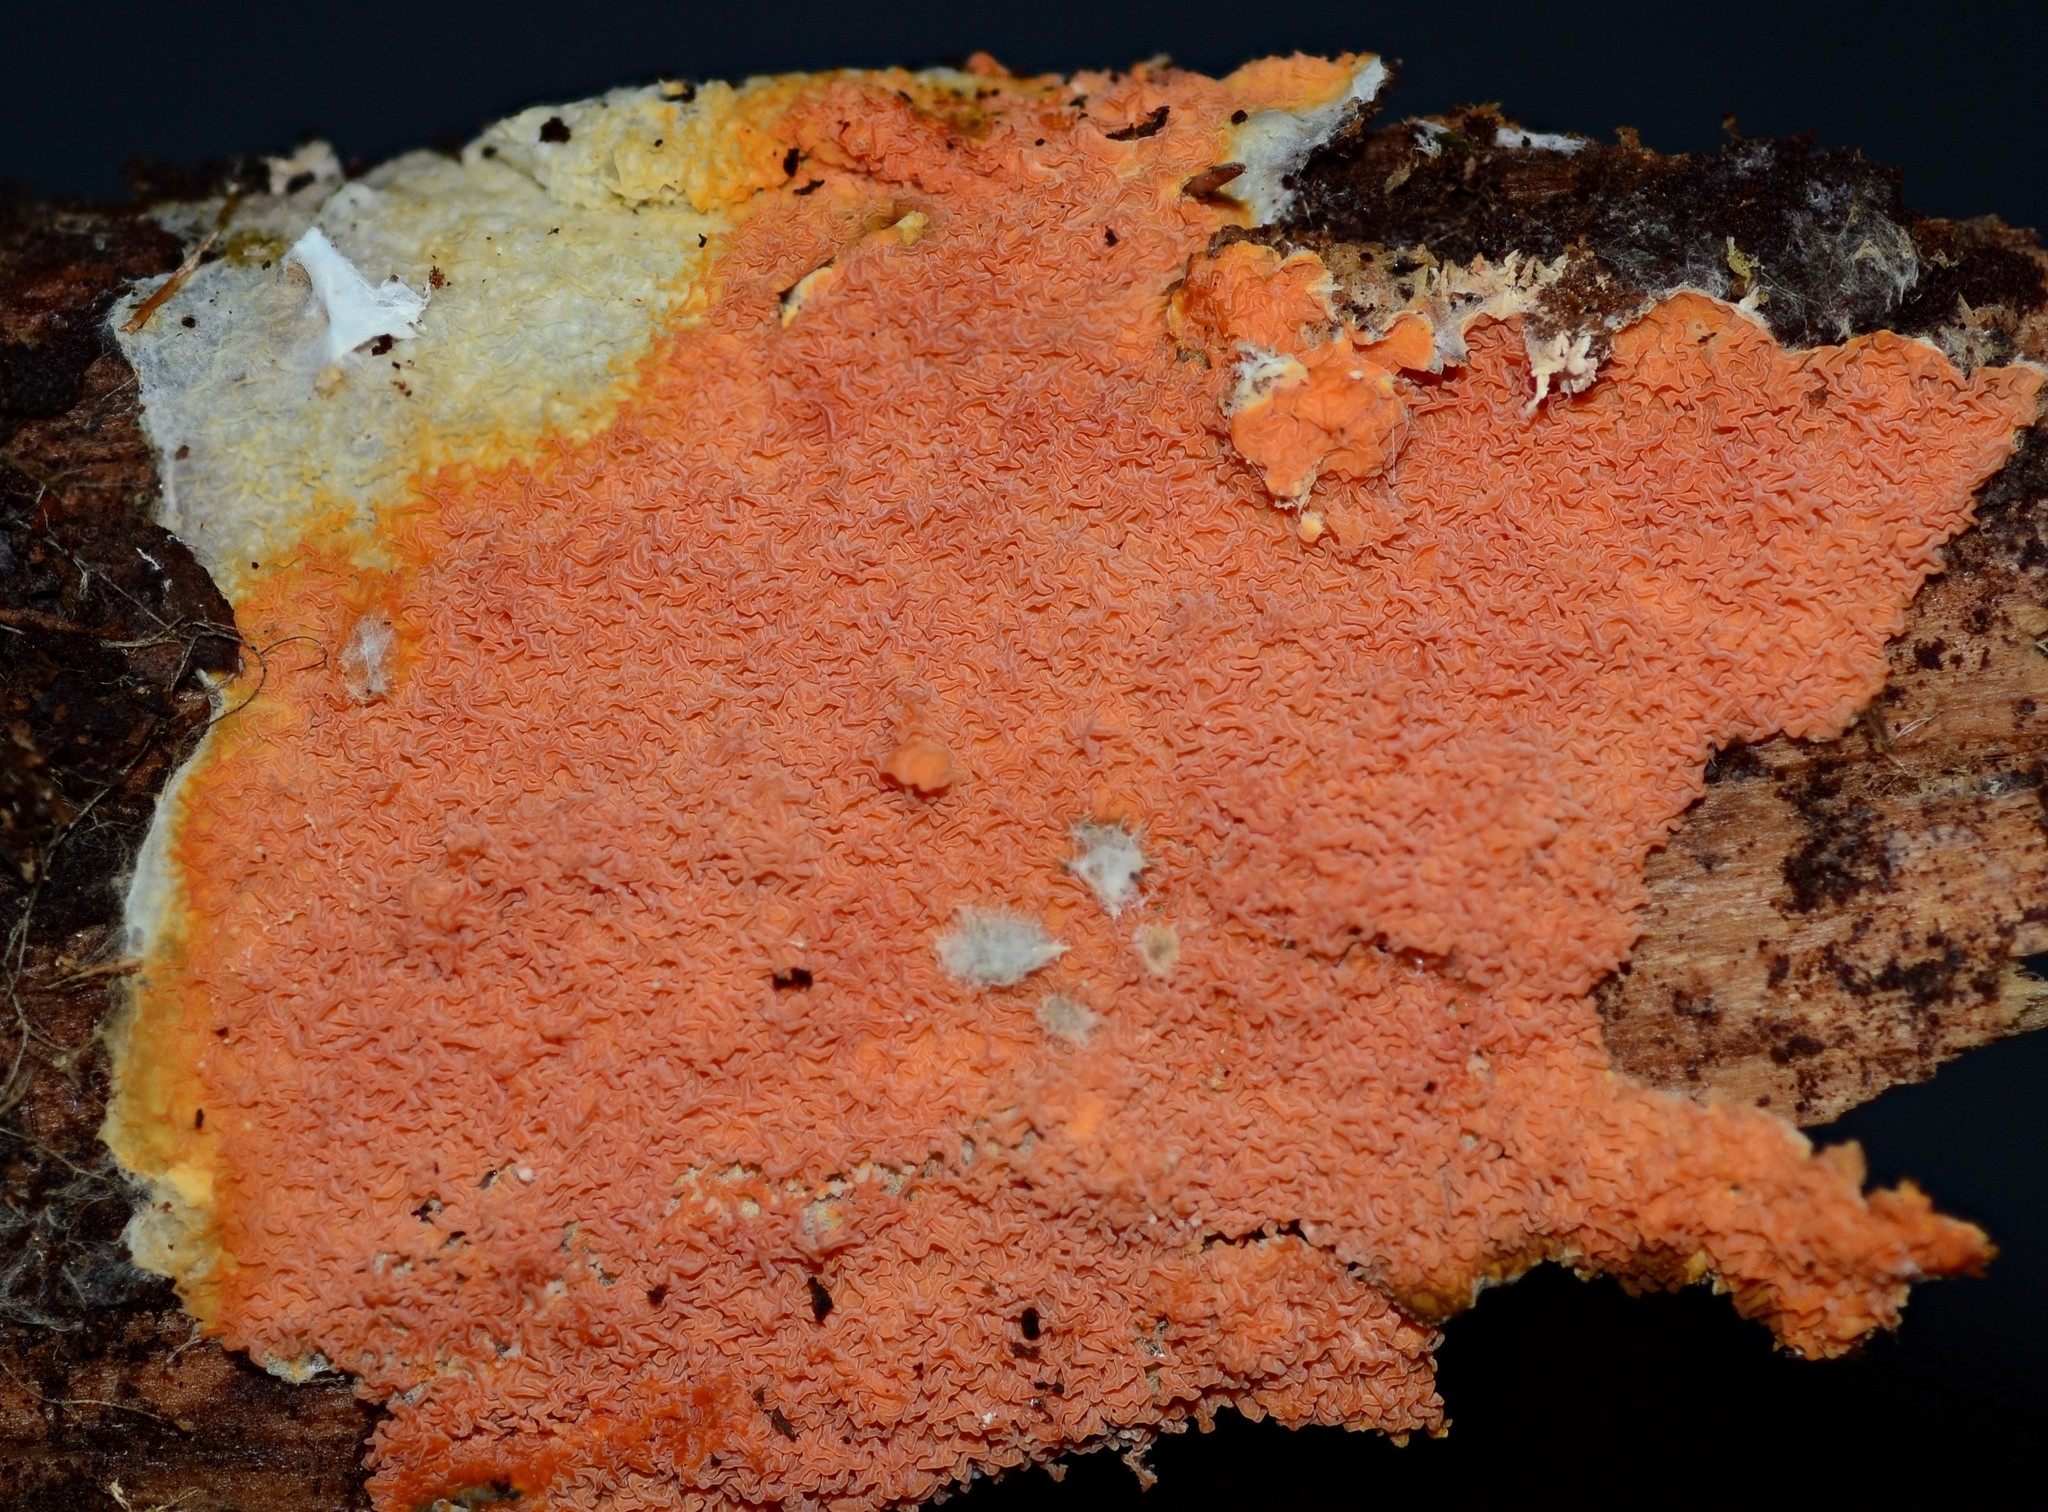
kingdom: Fungi
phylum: Basidiomycota
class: Agaricomycetes
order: Boletales
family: Hygrophoropsidaceae
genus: Leucogyrophana
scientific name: Leucogyrophana mollusca
